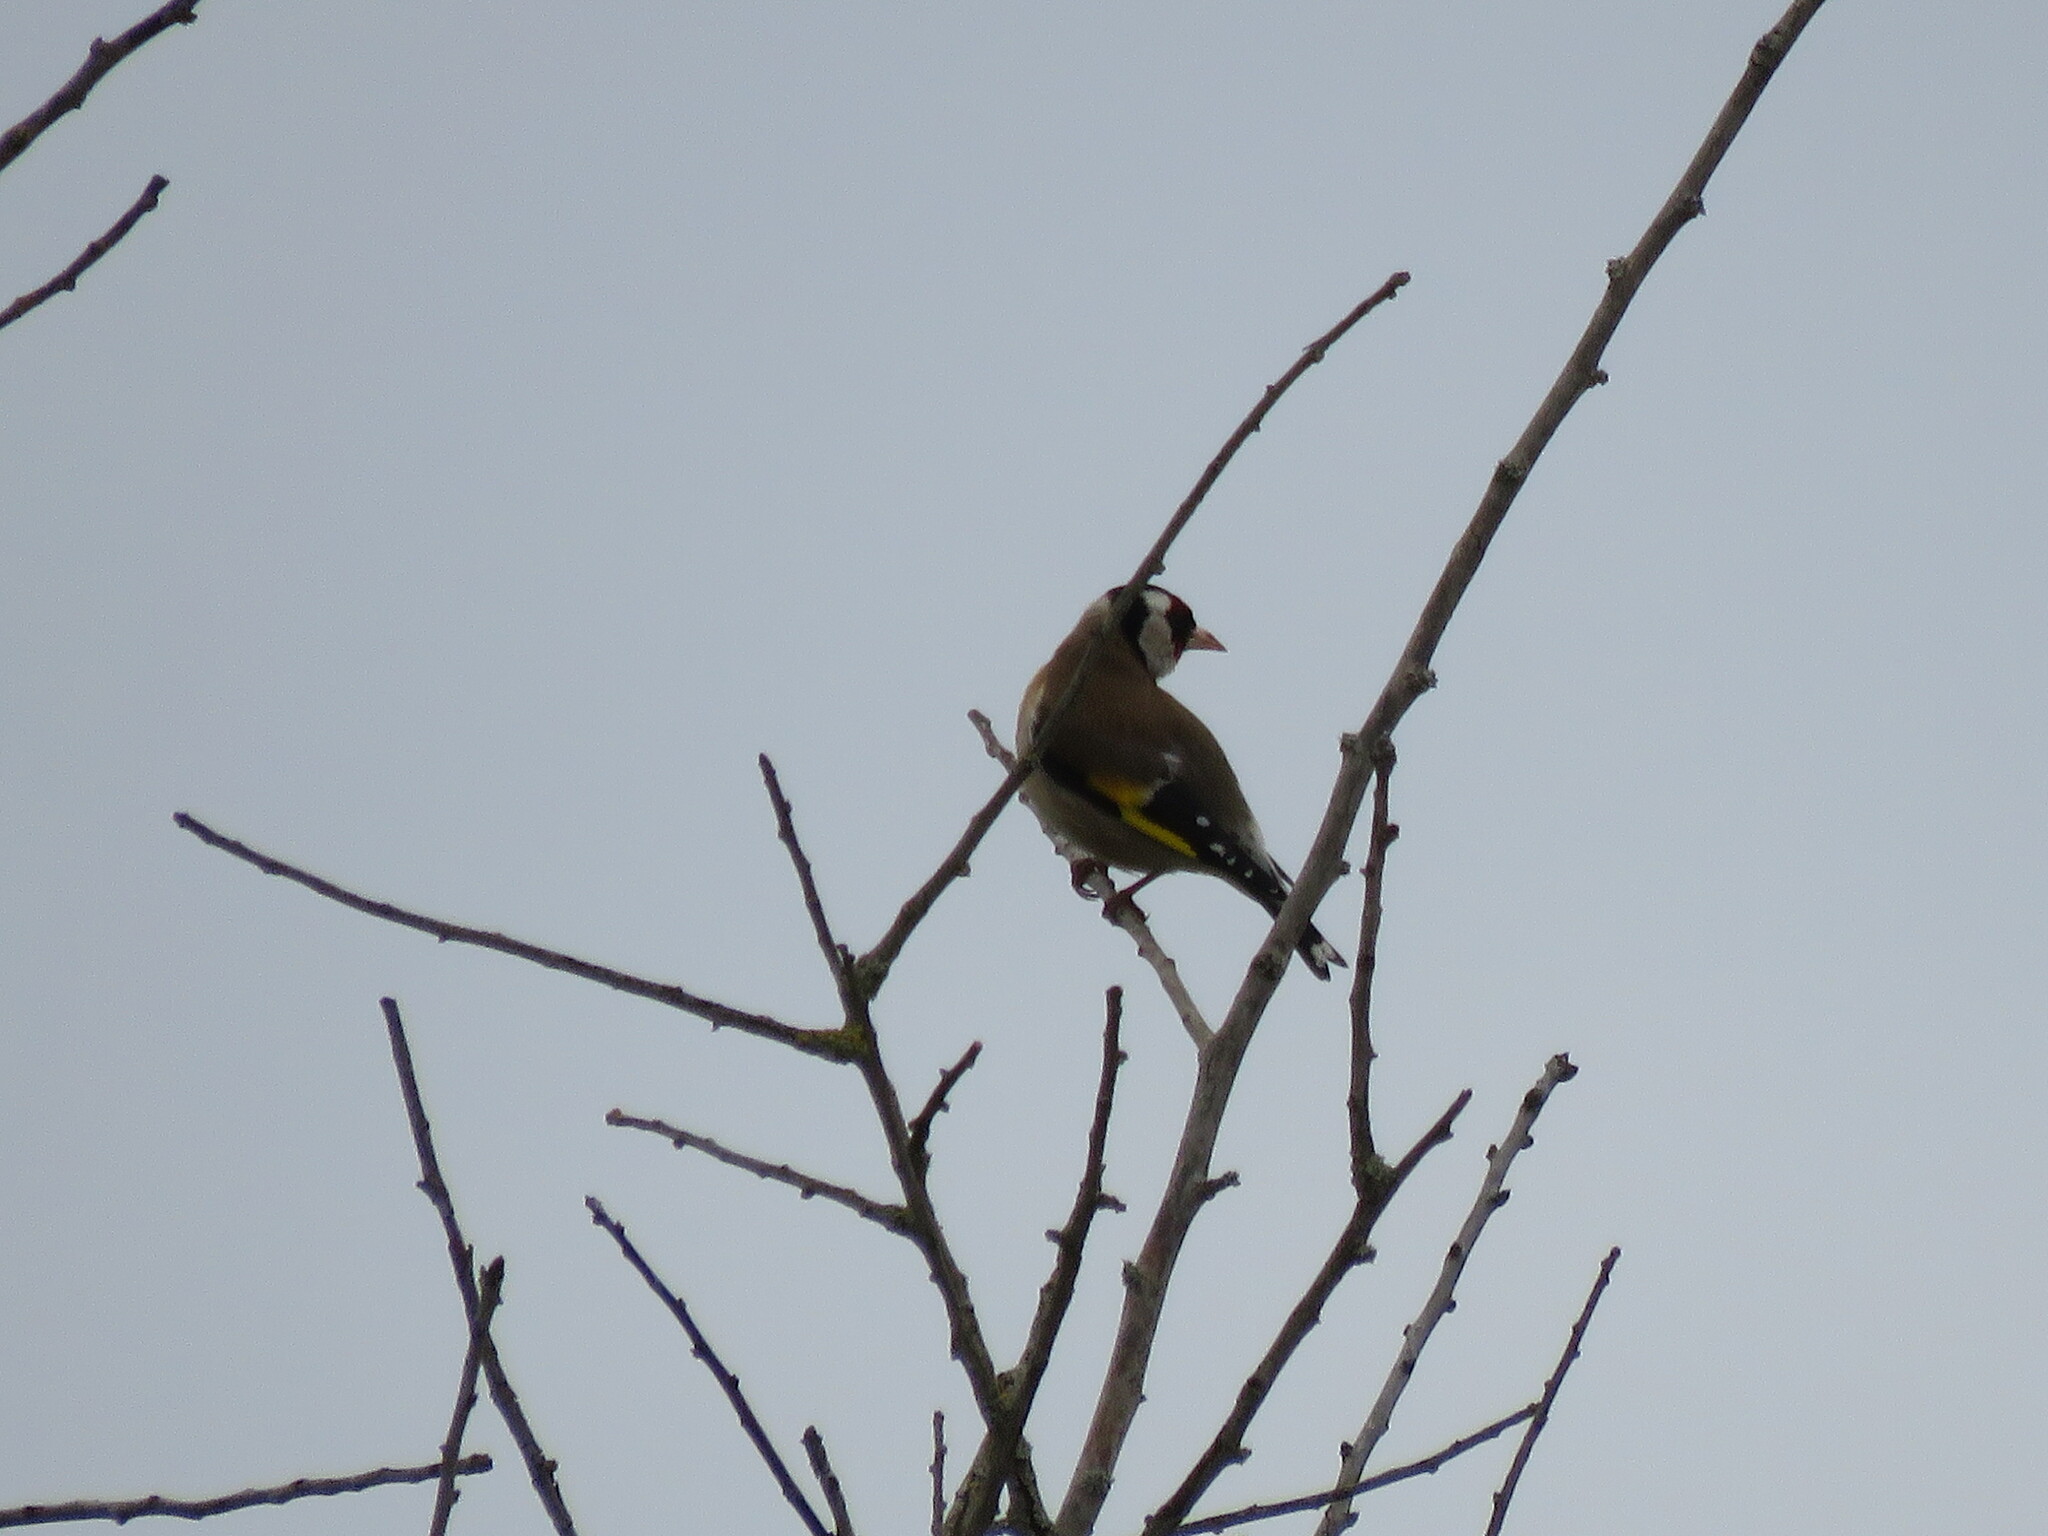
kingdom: Animalia
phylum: Chordata
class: Aves
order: Passeriformes
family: Fringillidae
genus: Carduelis
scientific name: Carduelis carduelis
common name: European goldfinch
